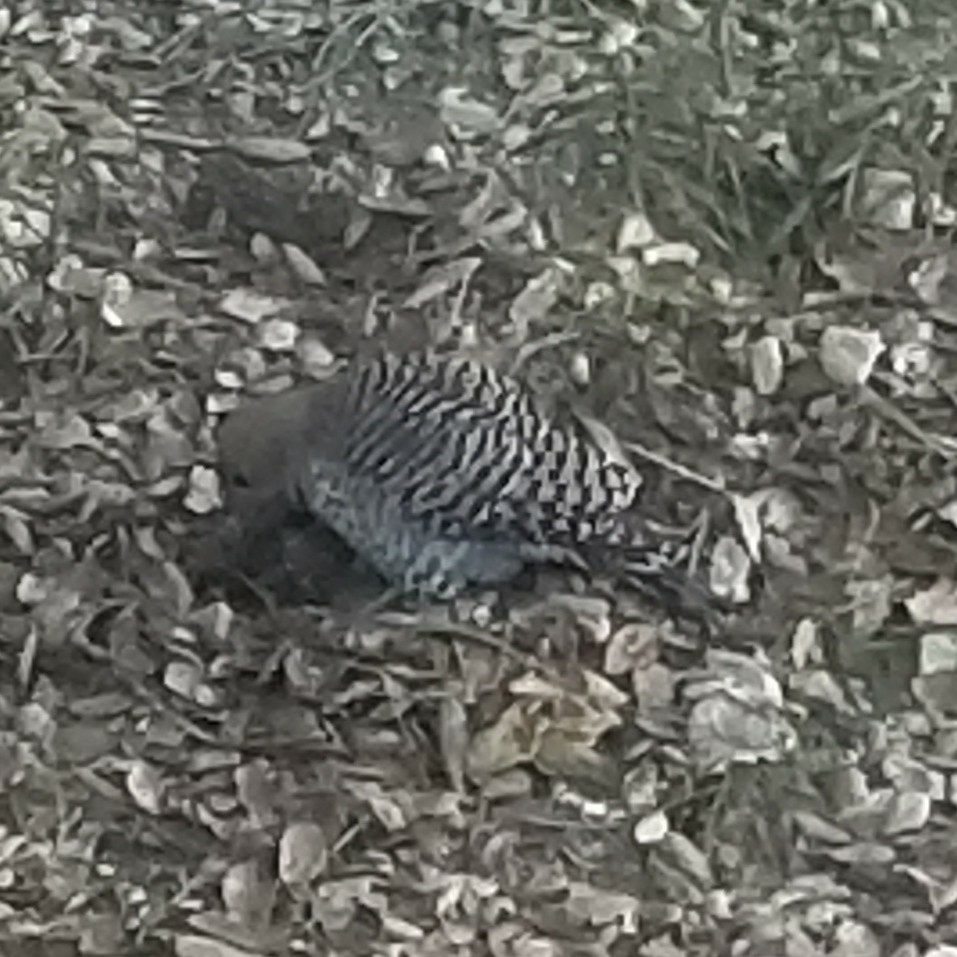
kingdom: Animalia
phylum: Chordata
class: Aves
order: Piciformes
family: Picidae
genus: Colaptes
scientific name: Colaptes auratus
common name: Northern flicker
